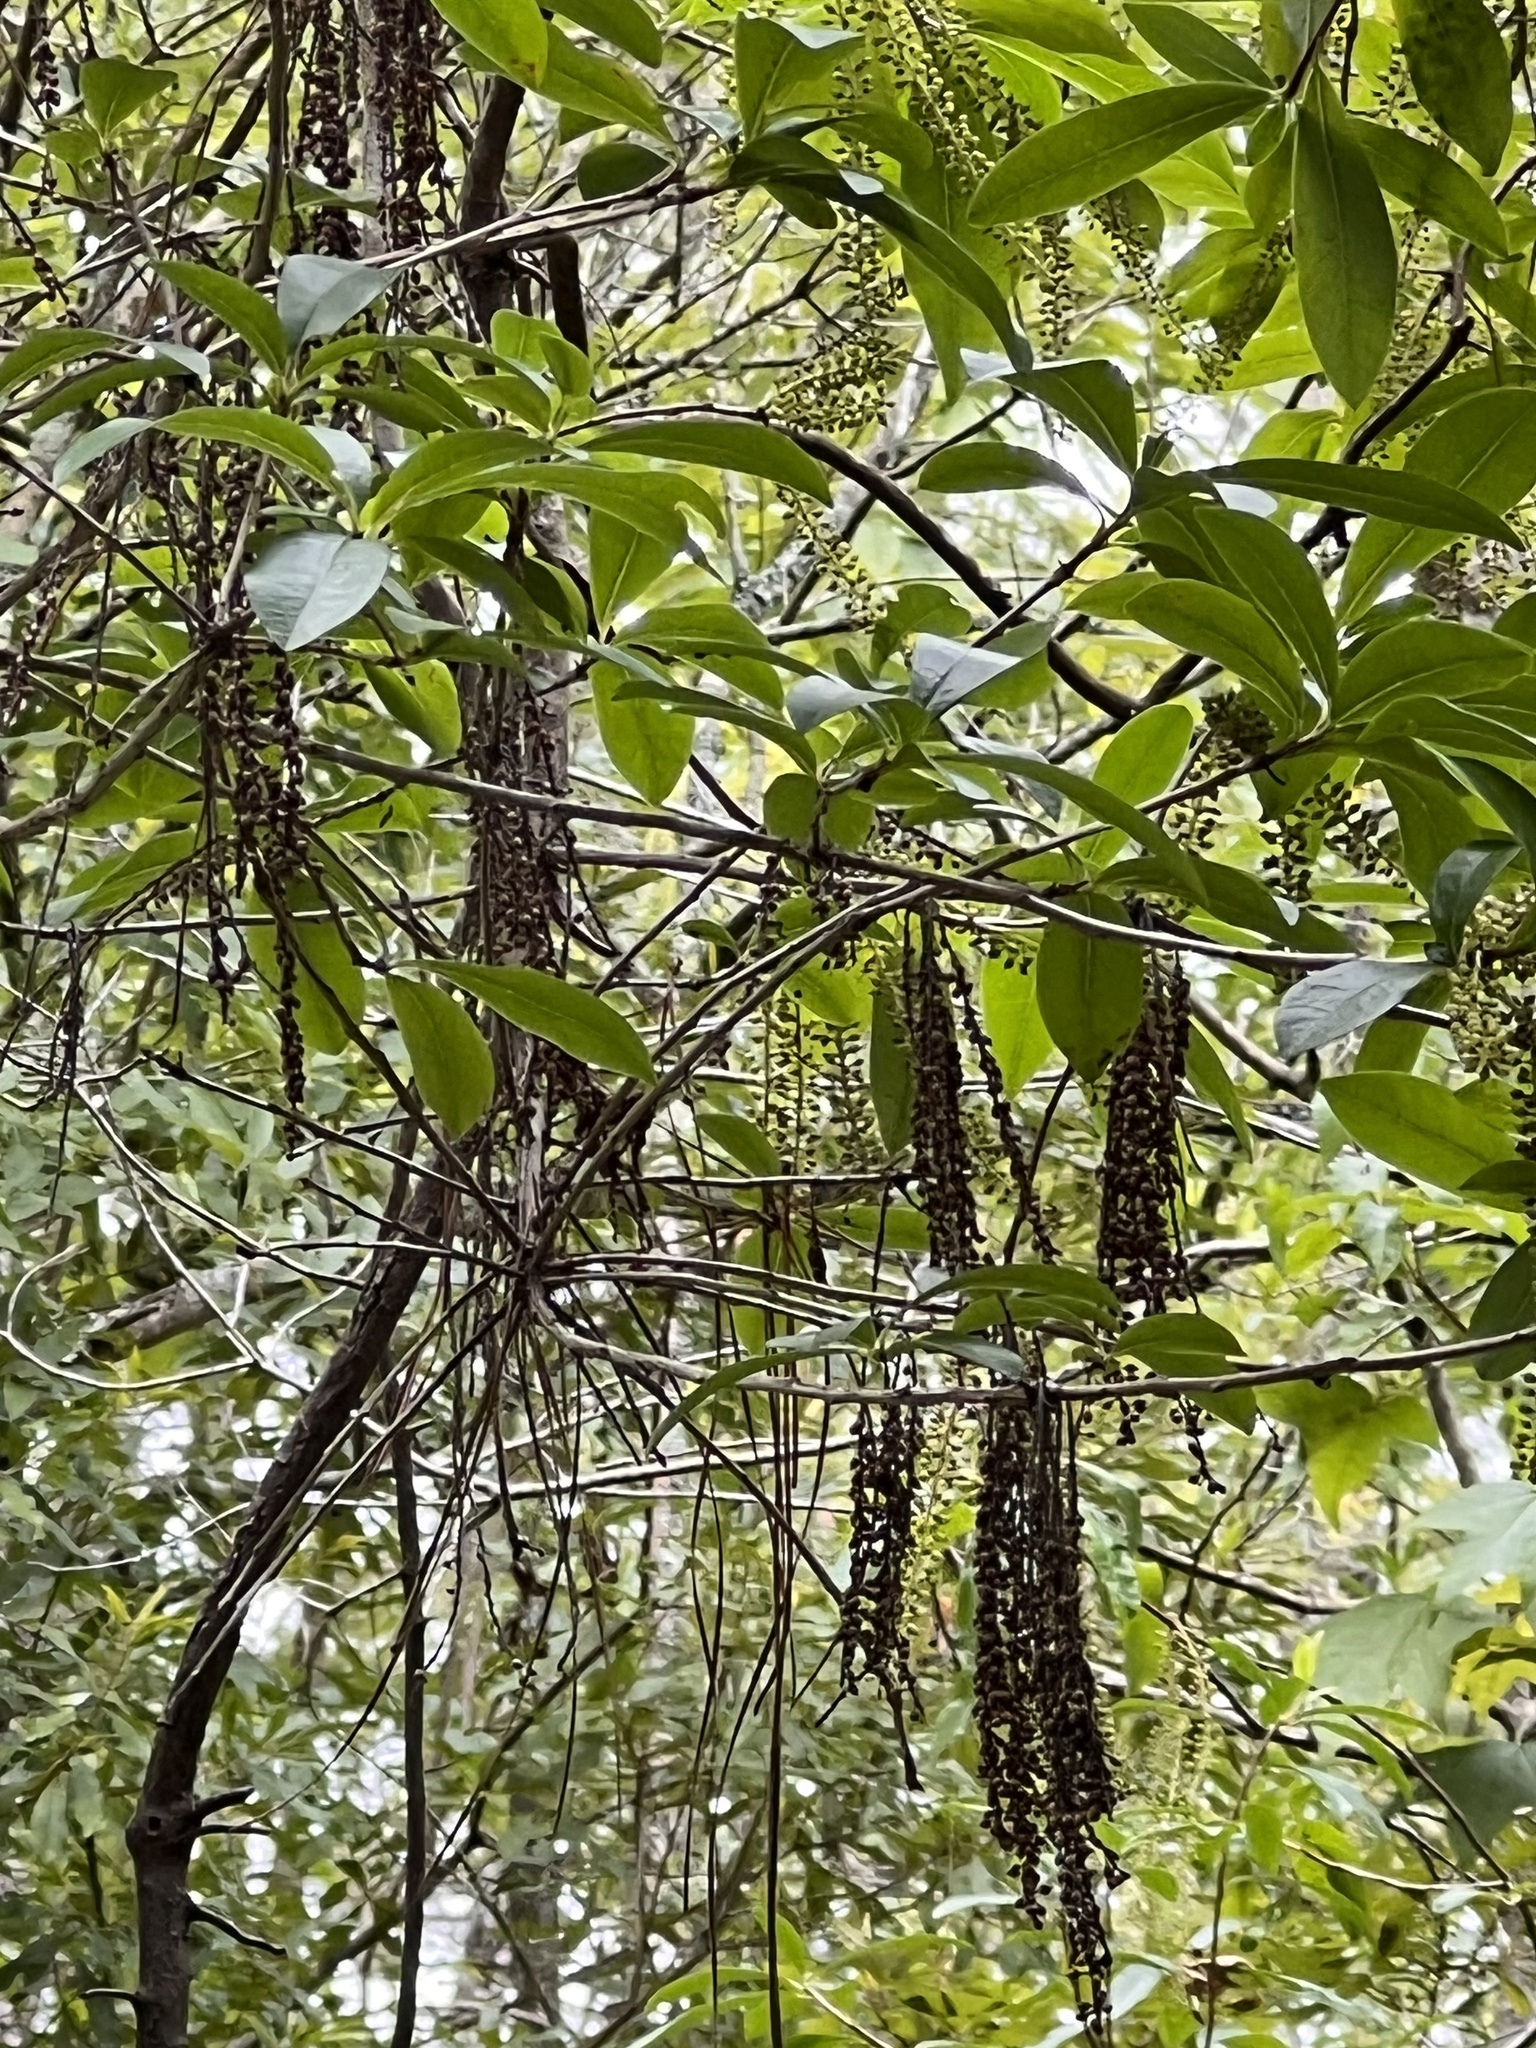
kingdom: Plantae
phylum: Tracheophyta
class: Magnoliopsida
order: Ericales
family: Cyrillaceae
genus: Cyrilla
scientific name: Cyrilla racemiflora
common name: Black titi
